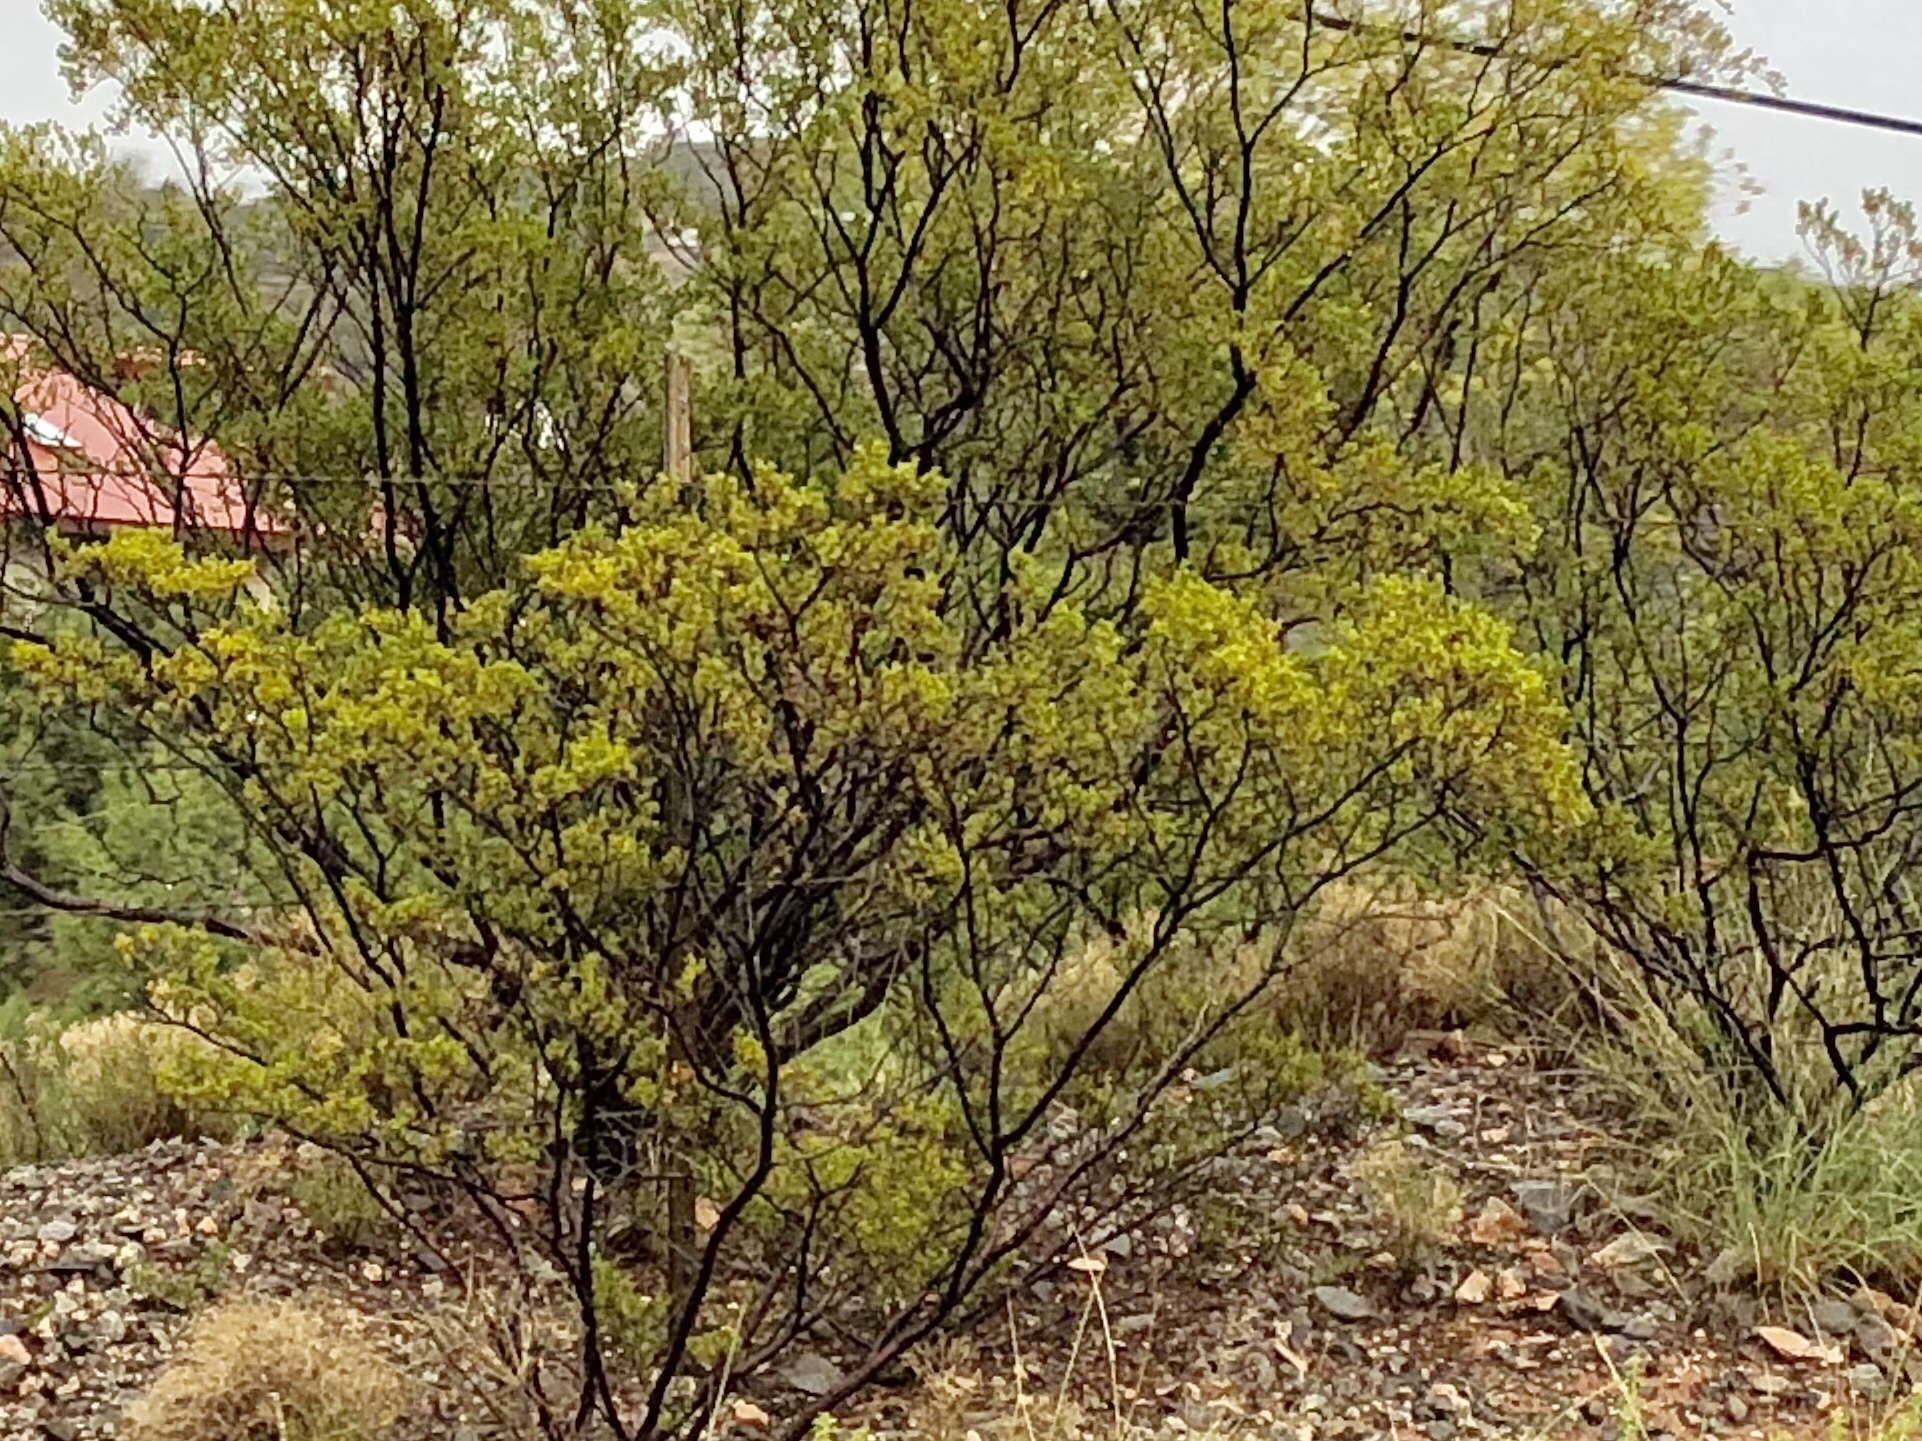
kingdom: Plantae
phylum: Tracheophyta
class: Magnoliopsida
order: Zygophyllales
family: Zygophyllaceae
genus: Larrea
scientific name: Larrea tridentata
